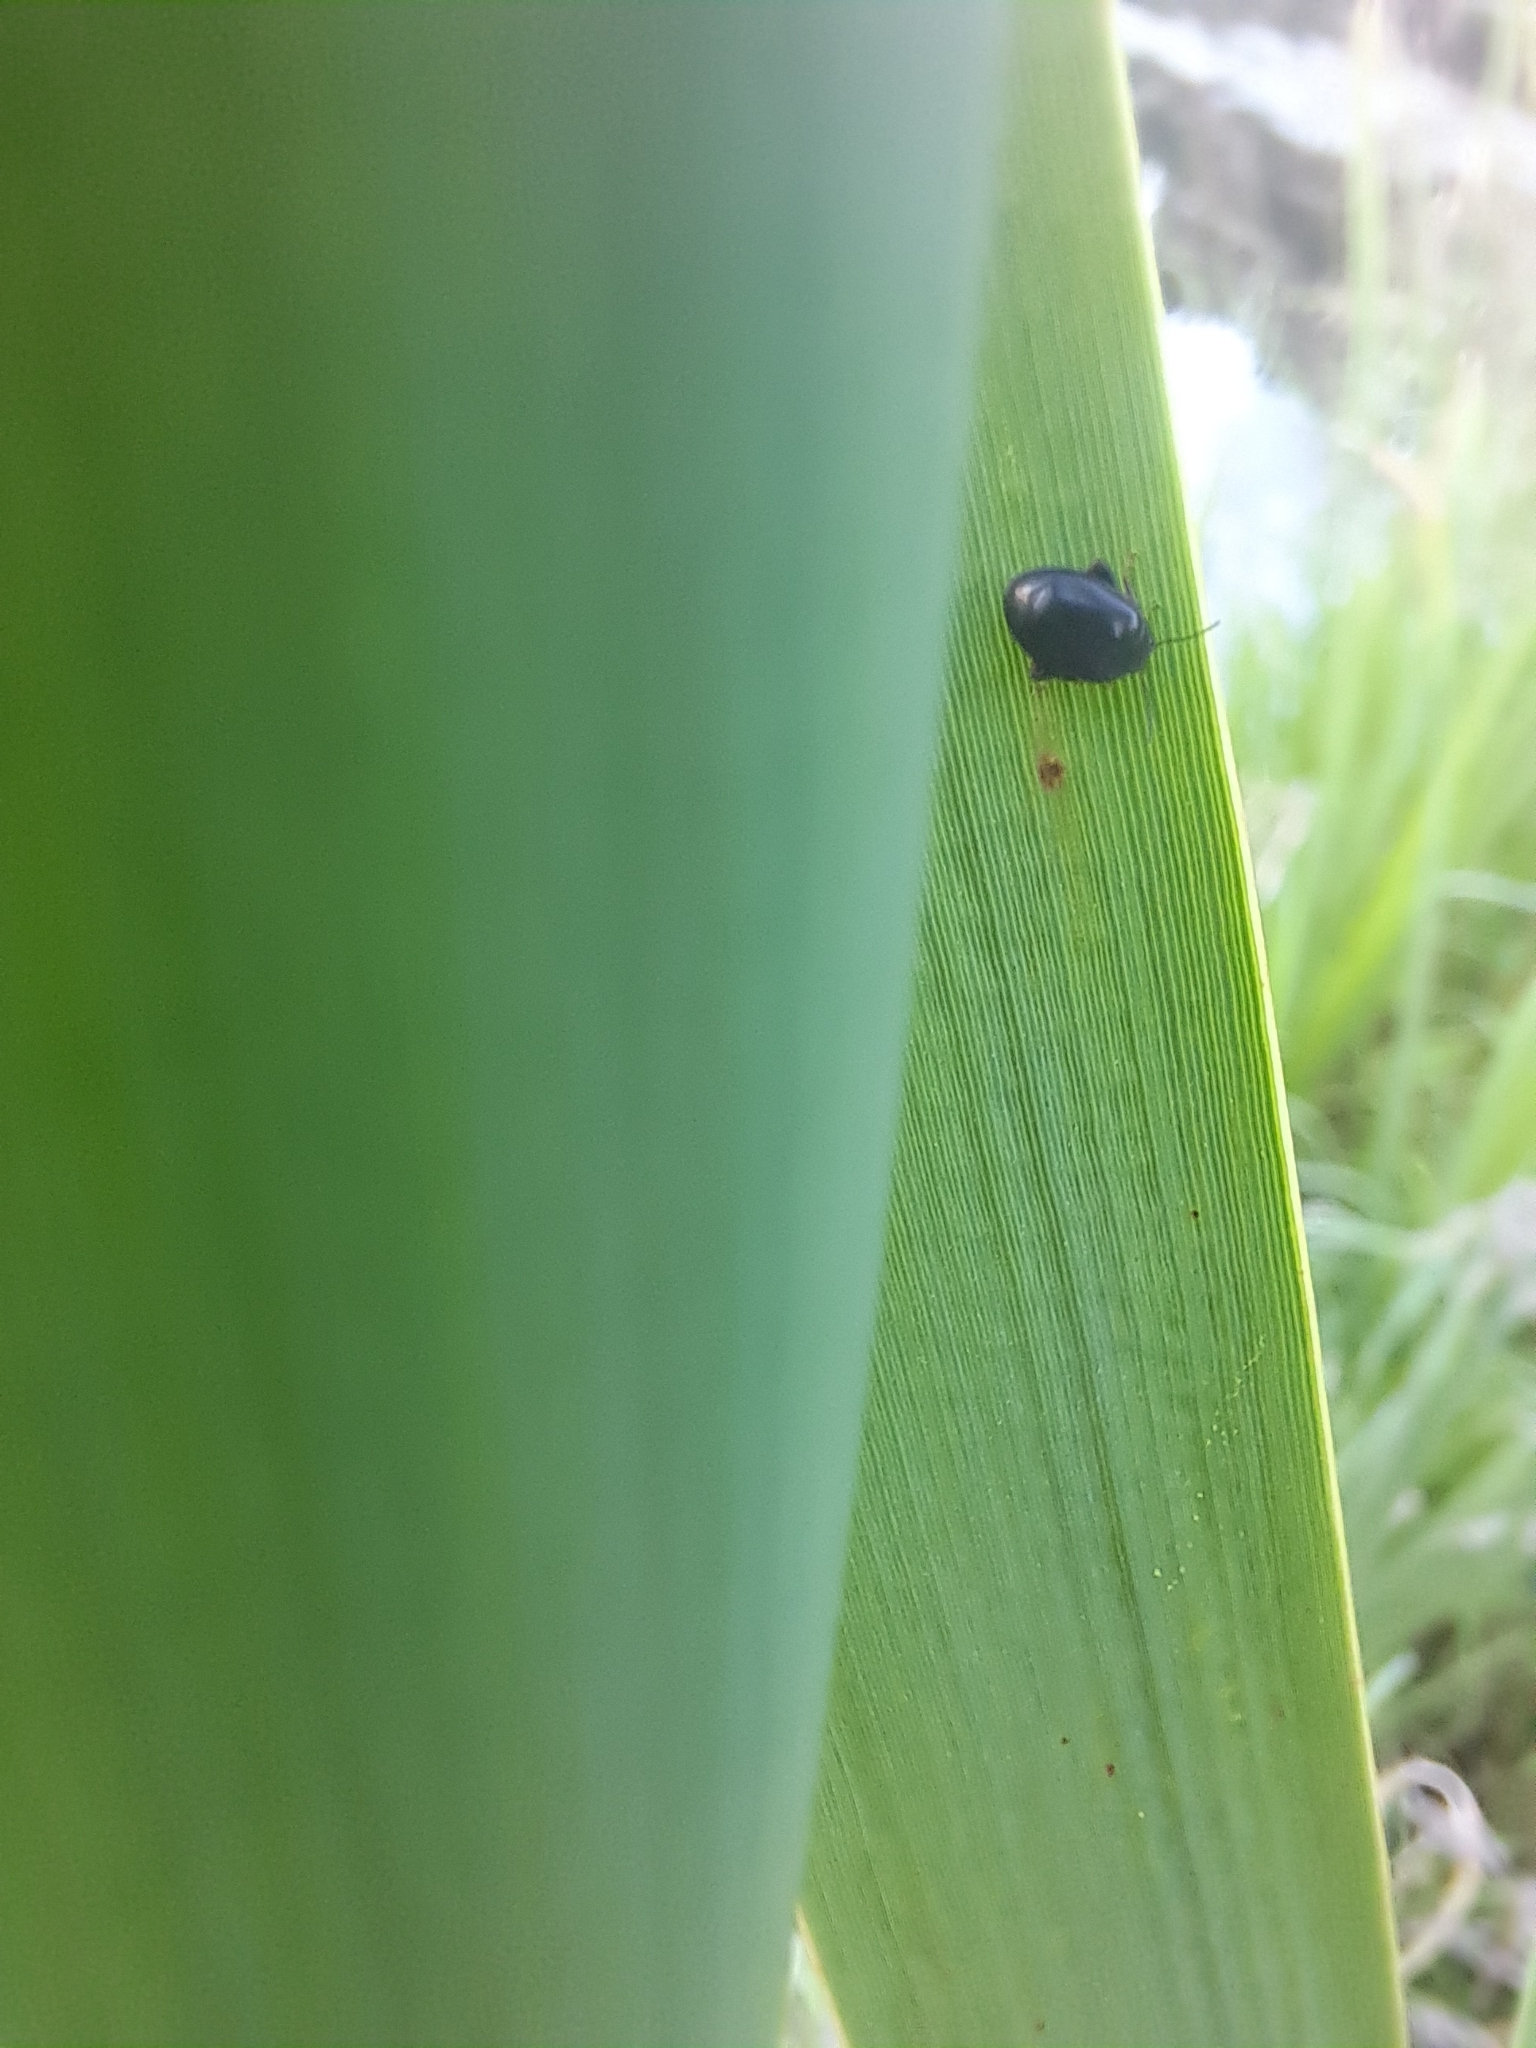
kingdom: Animalia
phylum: Arthropoda
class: Insecta
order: Coleoptera
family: Scirtidae
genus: Scirtes
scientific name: Scirtes tibialis
